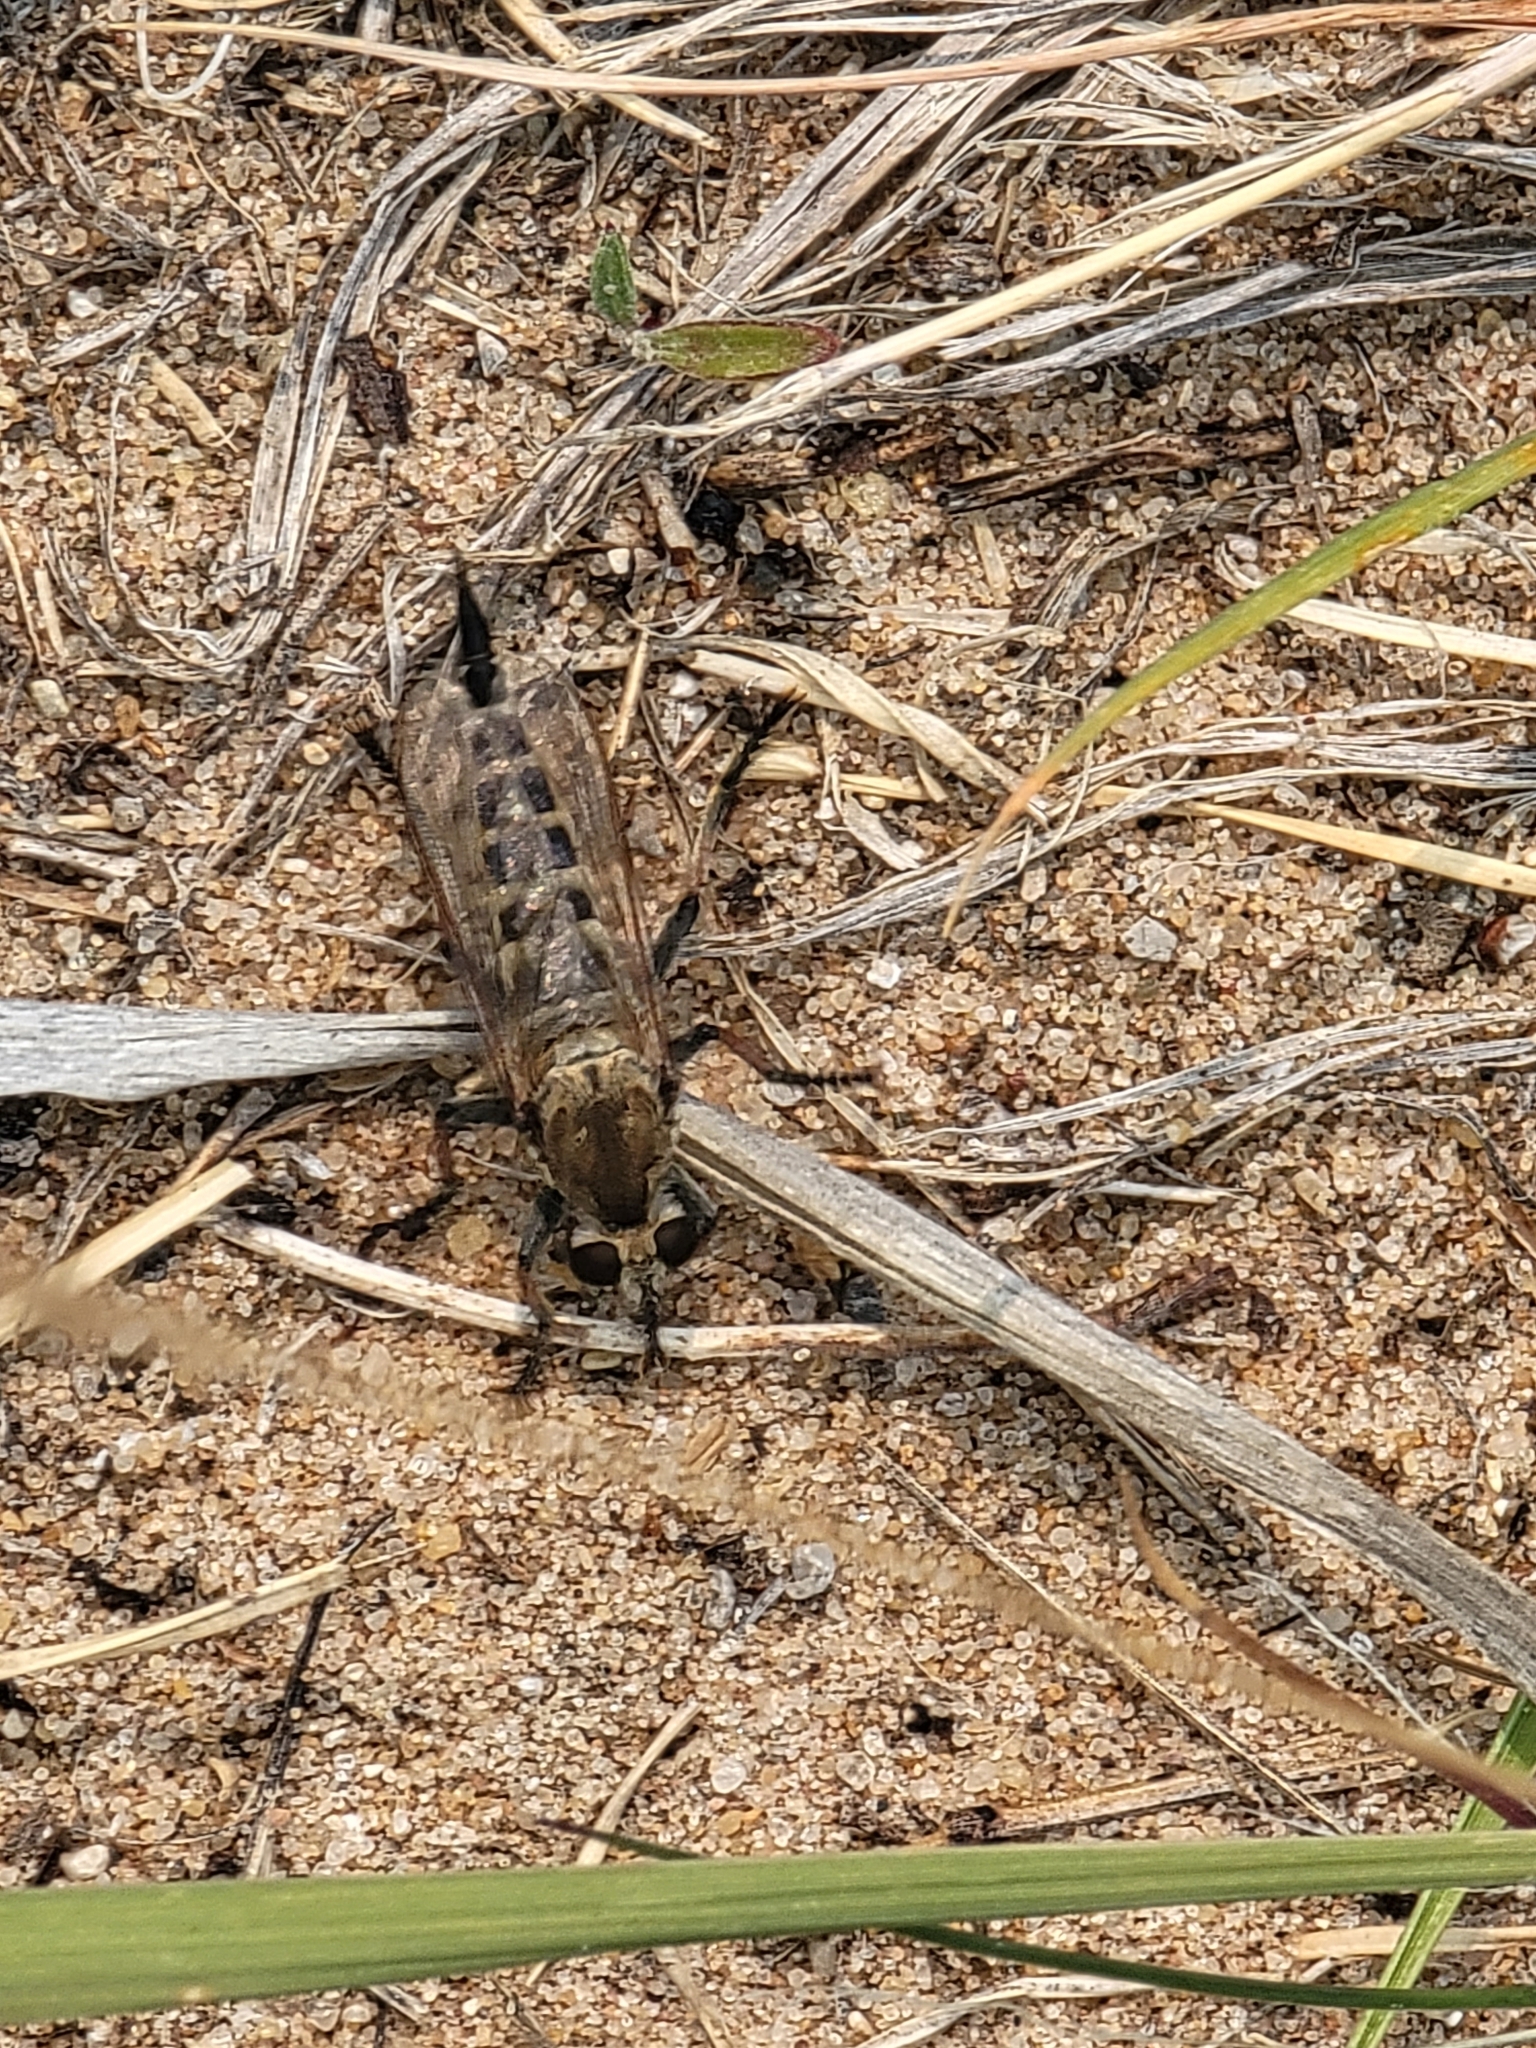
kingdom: Animalia
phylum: Arthropoda
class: Insecta
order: Diptera
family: Asilidae
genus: Efferia
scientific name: Efferia albibarbis
